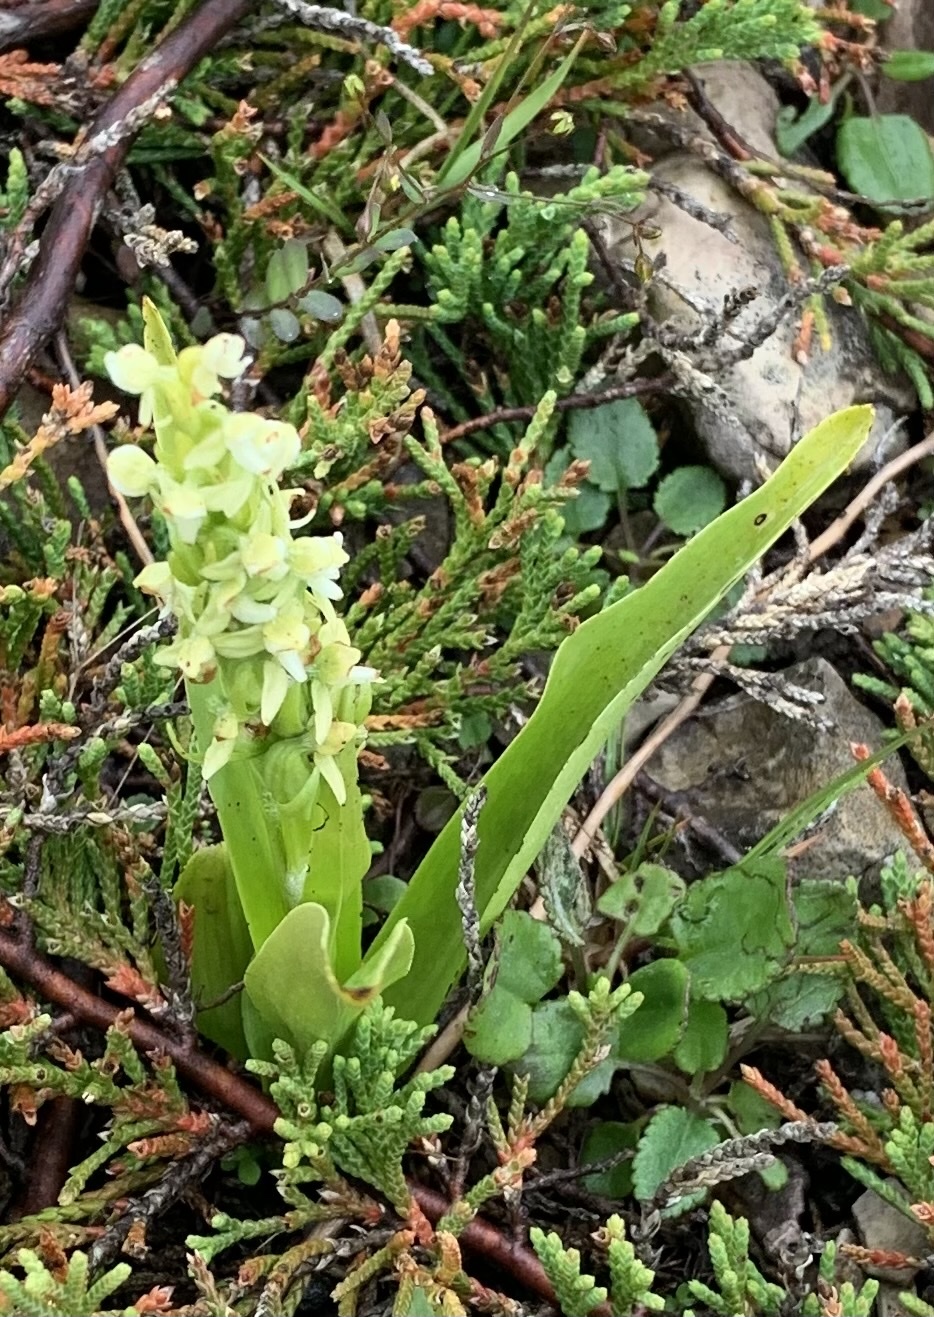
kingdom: Plantae
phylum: Tracheophyta
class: Liliopsida
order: Asparagales
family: Orchidaceae
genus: Platanthera
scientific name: Platanthera huronensis
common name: Fragrant green orchid
